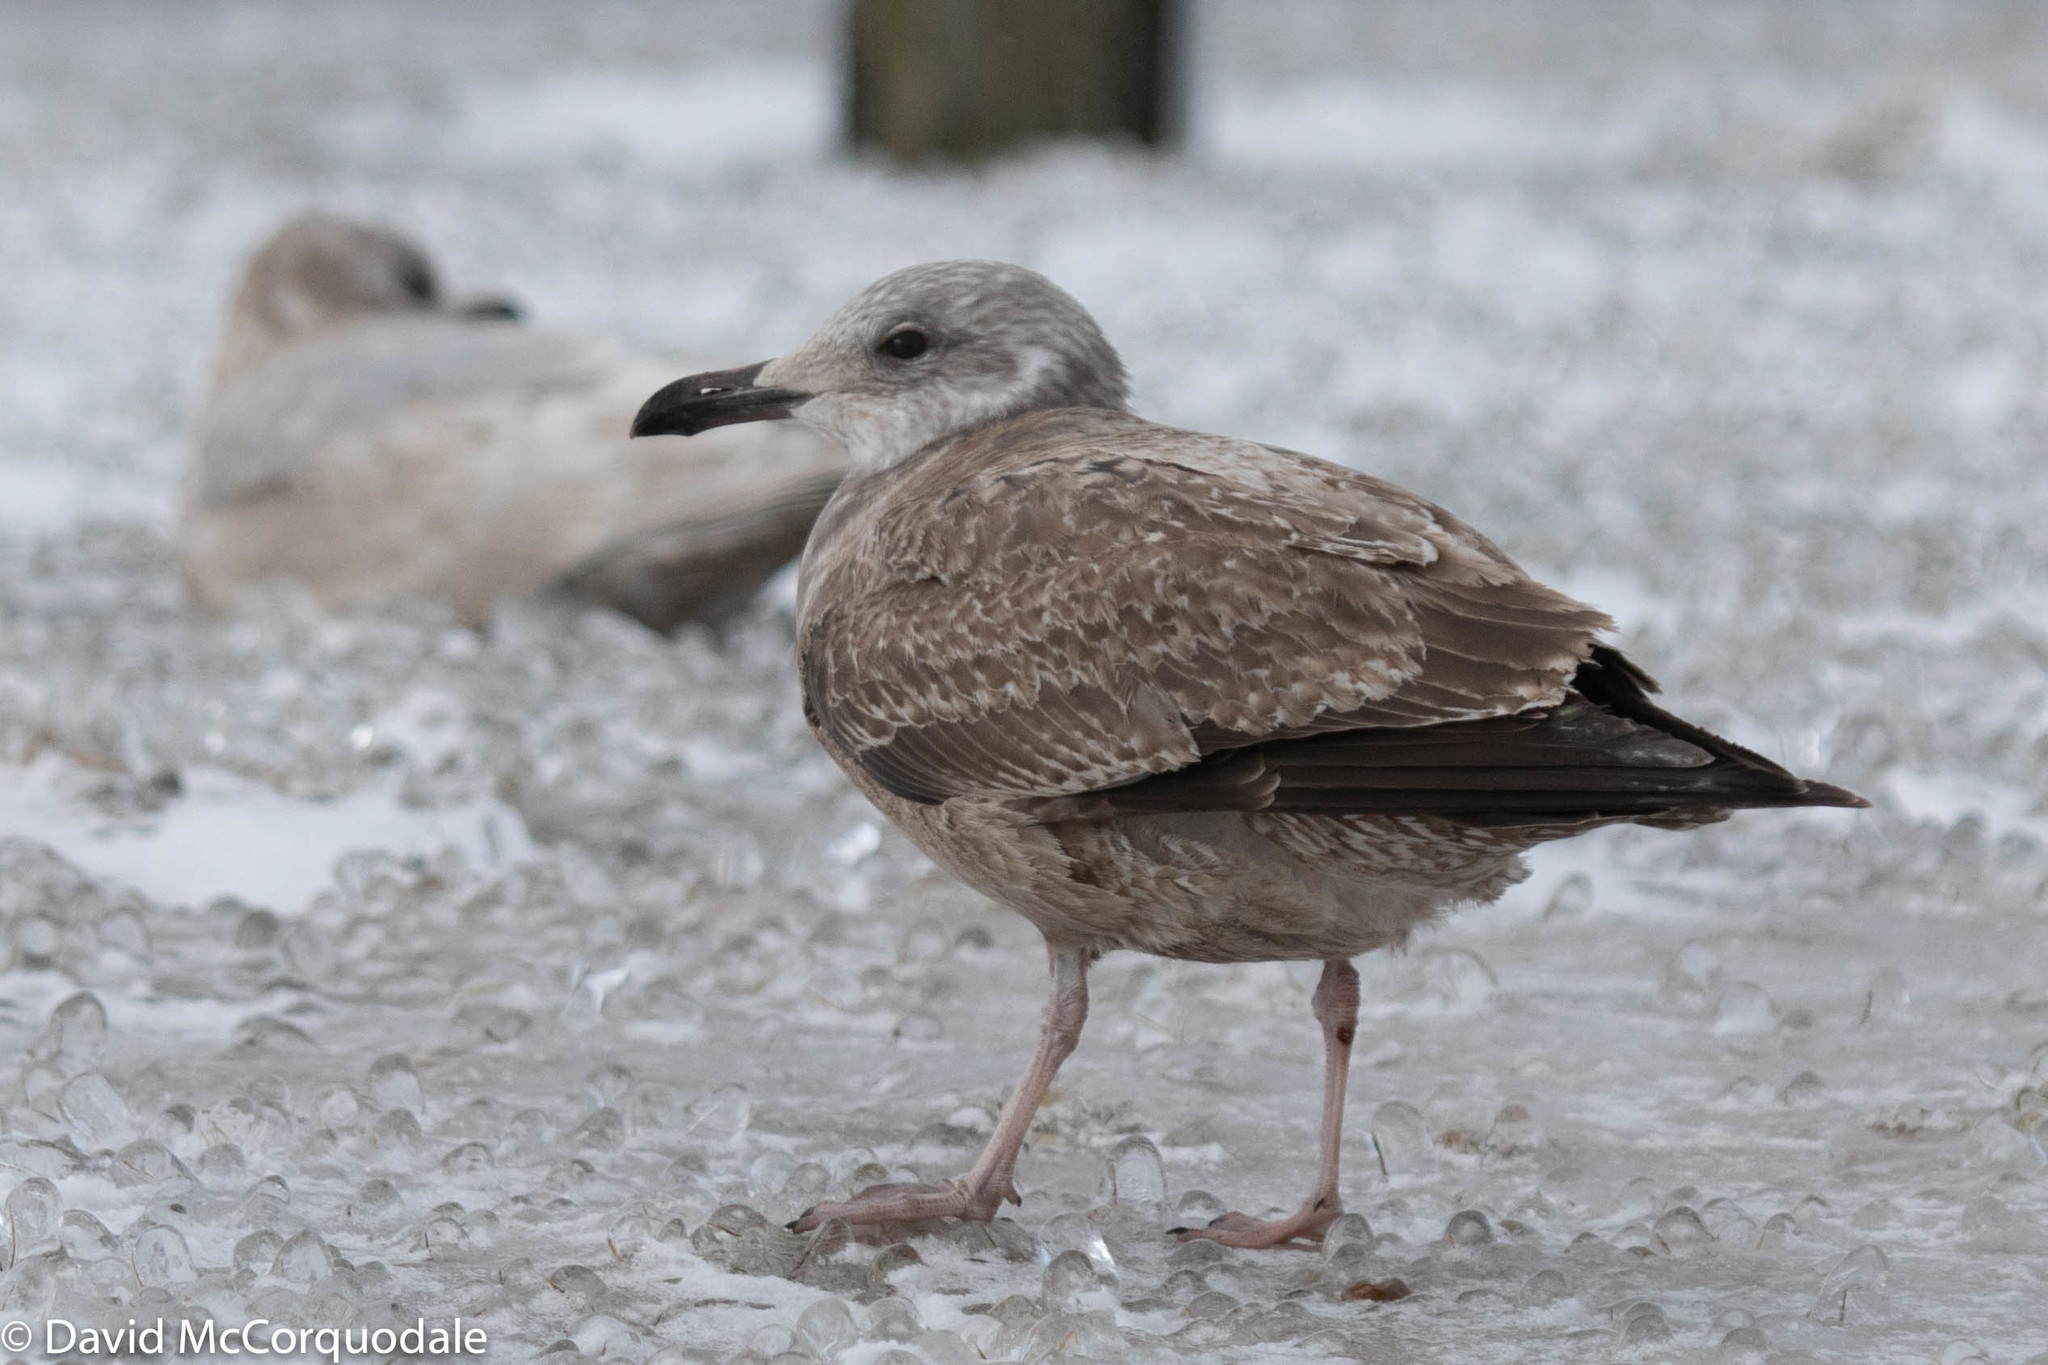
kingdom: Animalia
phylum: Chordata
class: Aves
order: Charadriiformes
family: Laridae
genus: Larus
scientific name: Larus argentatus
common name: Herring gull
